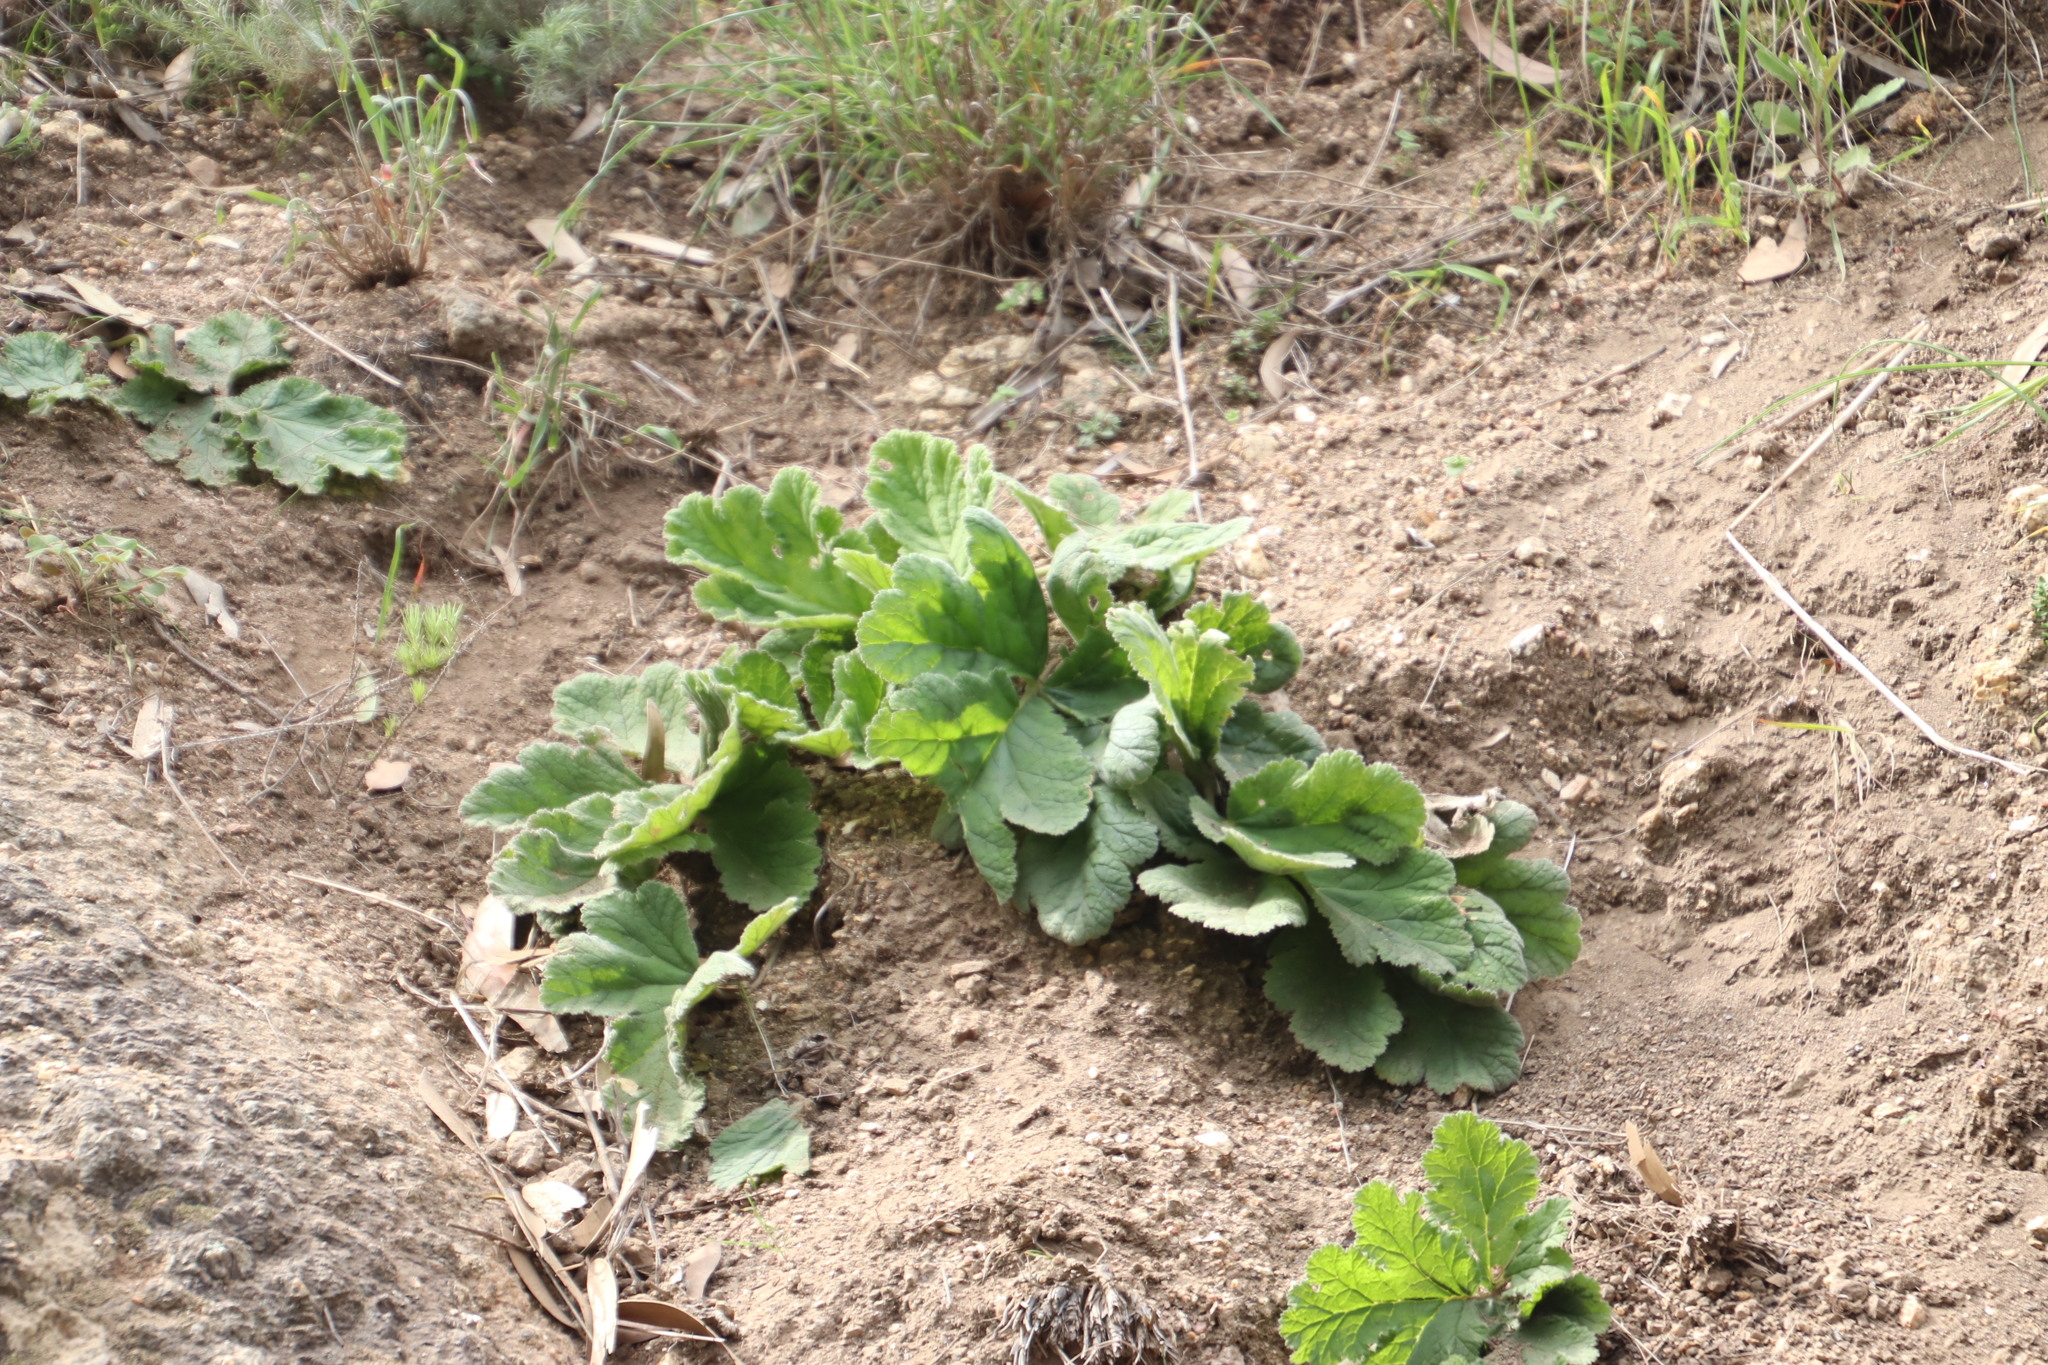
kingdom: Plantae
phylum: Tracheophyta
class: Magnoliopsida
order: Geraniales
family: Geraniaceae
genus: Pelargonium
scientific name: Pelargonium lobatum
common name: Vine-leaf pelargonium
